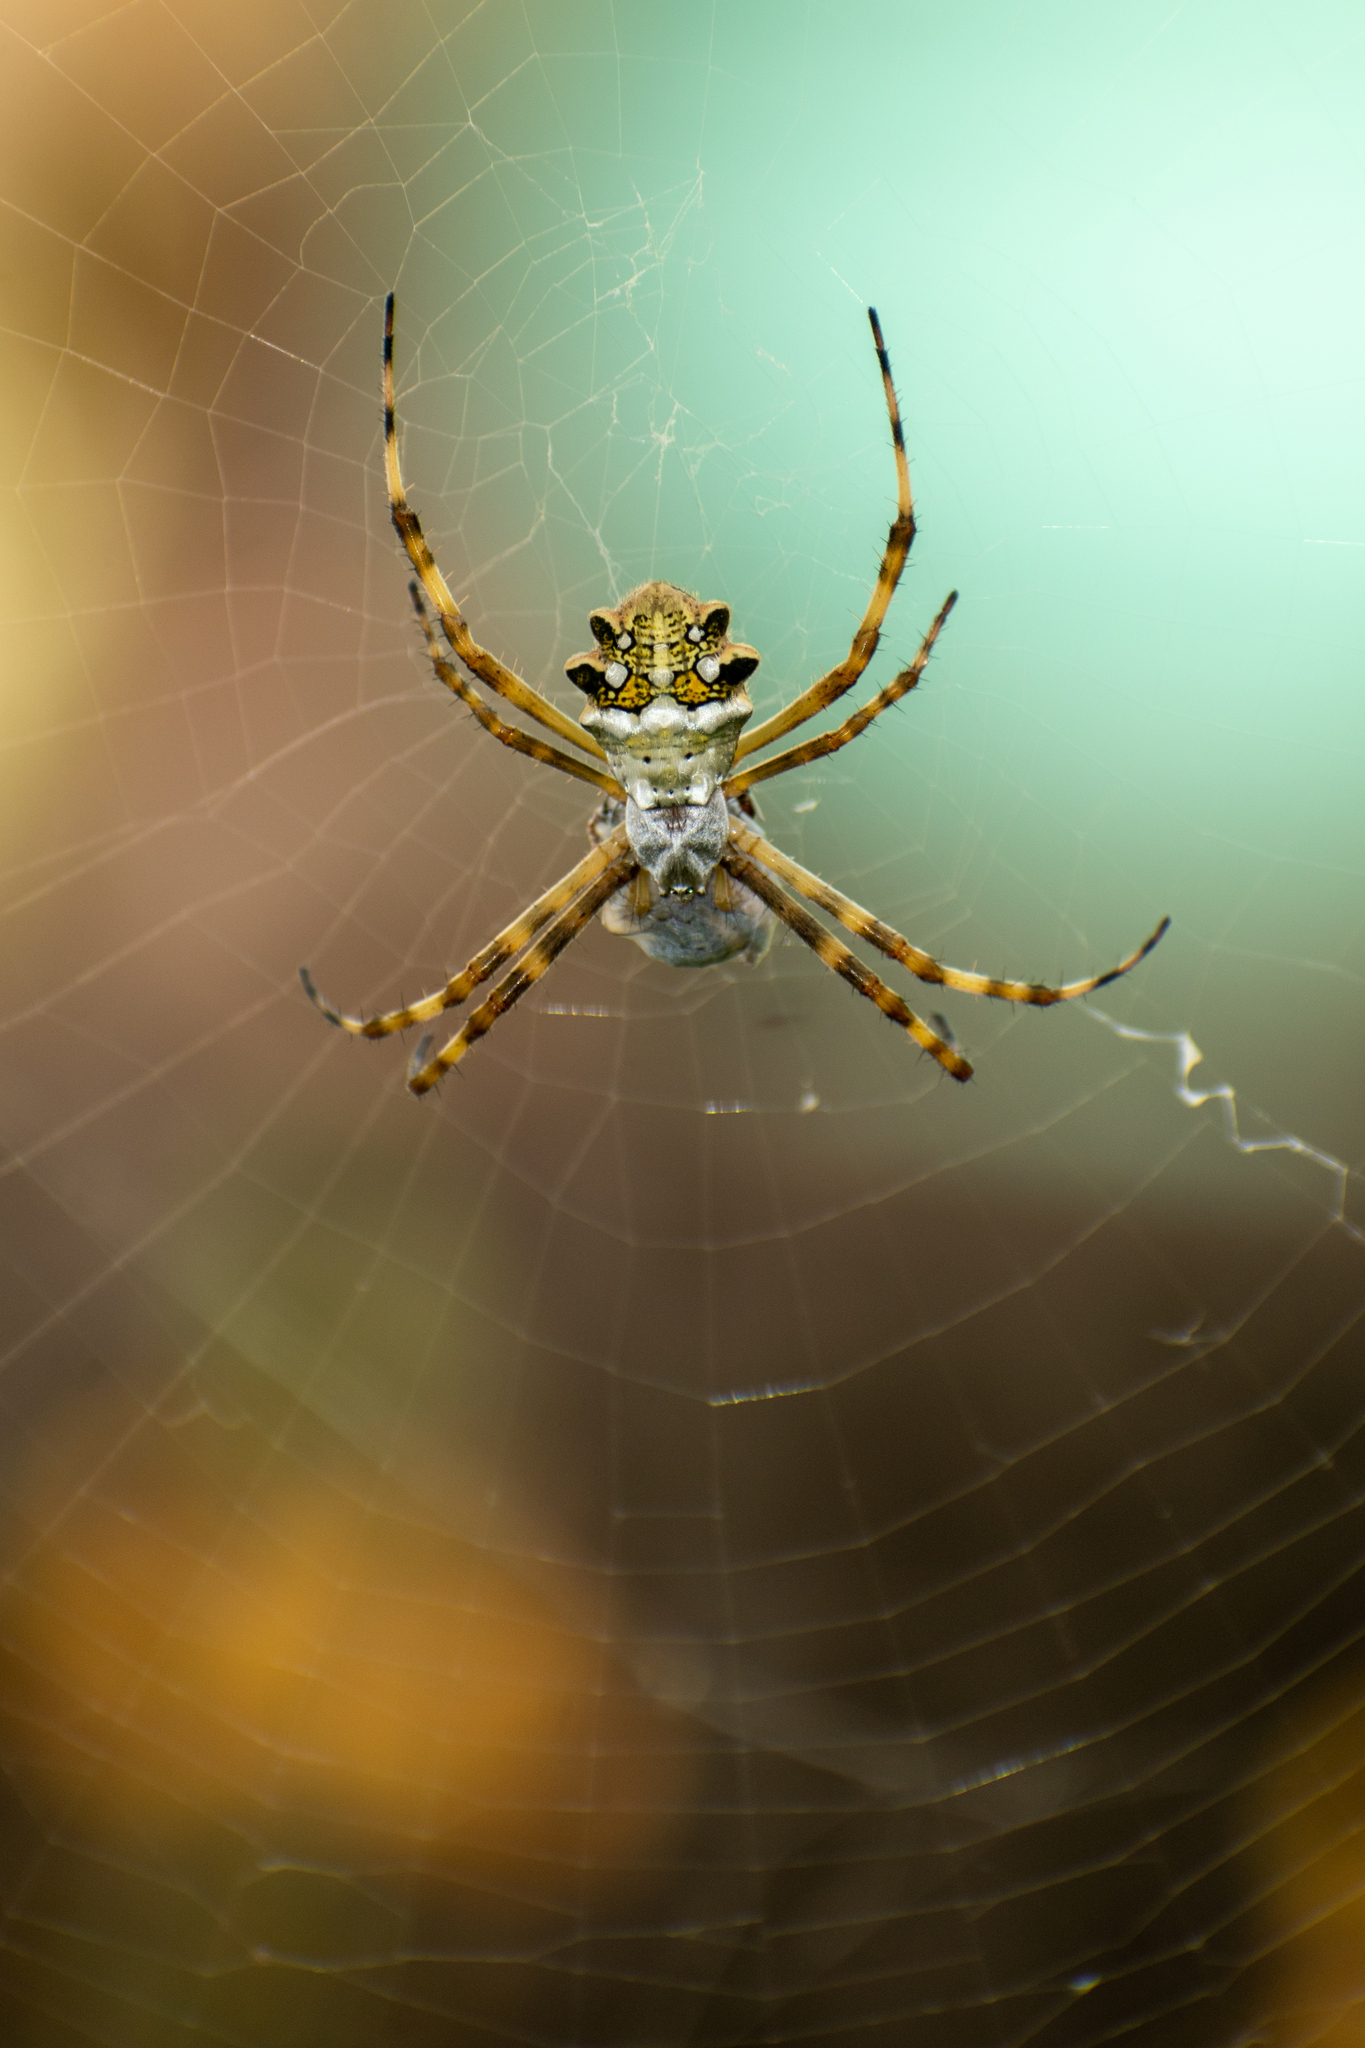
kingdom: Animalia
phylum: Arthropoda
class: Arachnida
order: Araneae
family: Araneidae
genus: Argiope
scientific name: Argiope argentata
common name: Orb weavers
